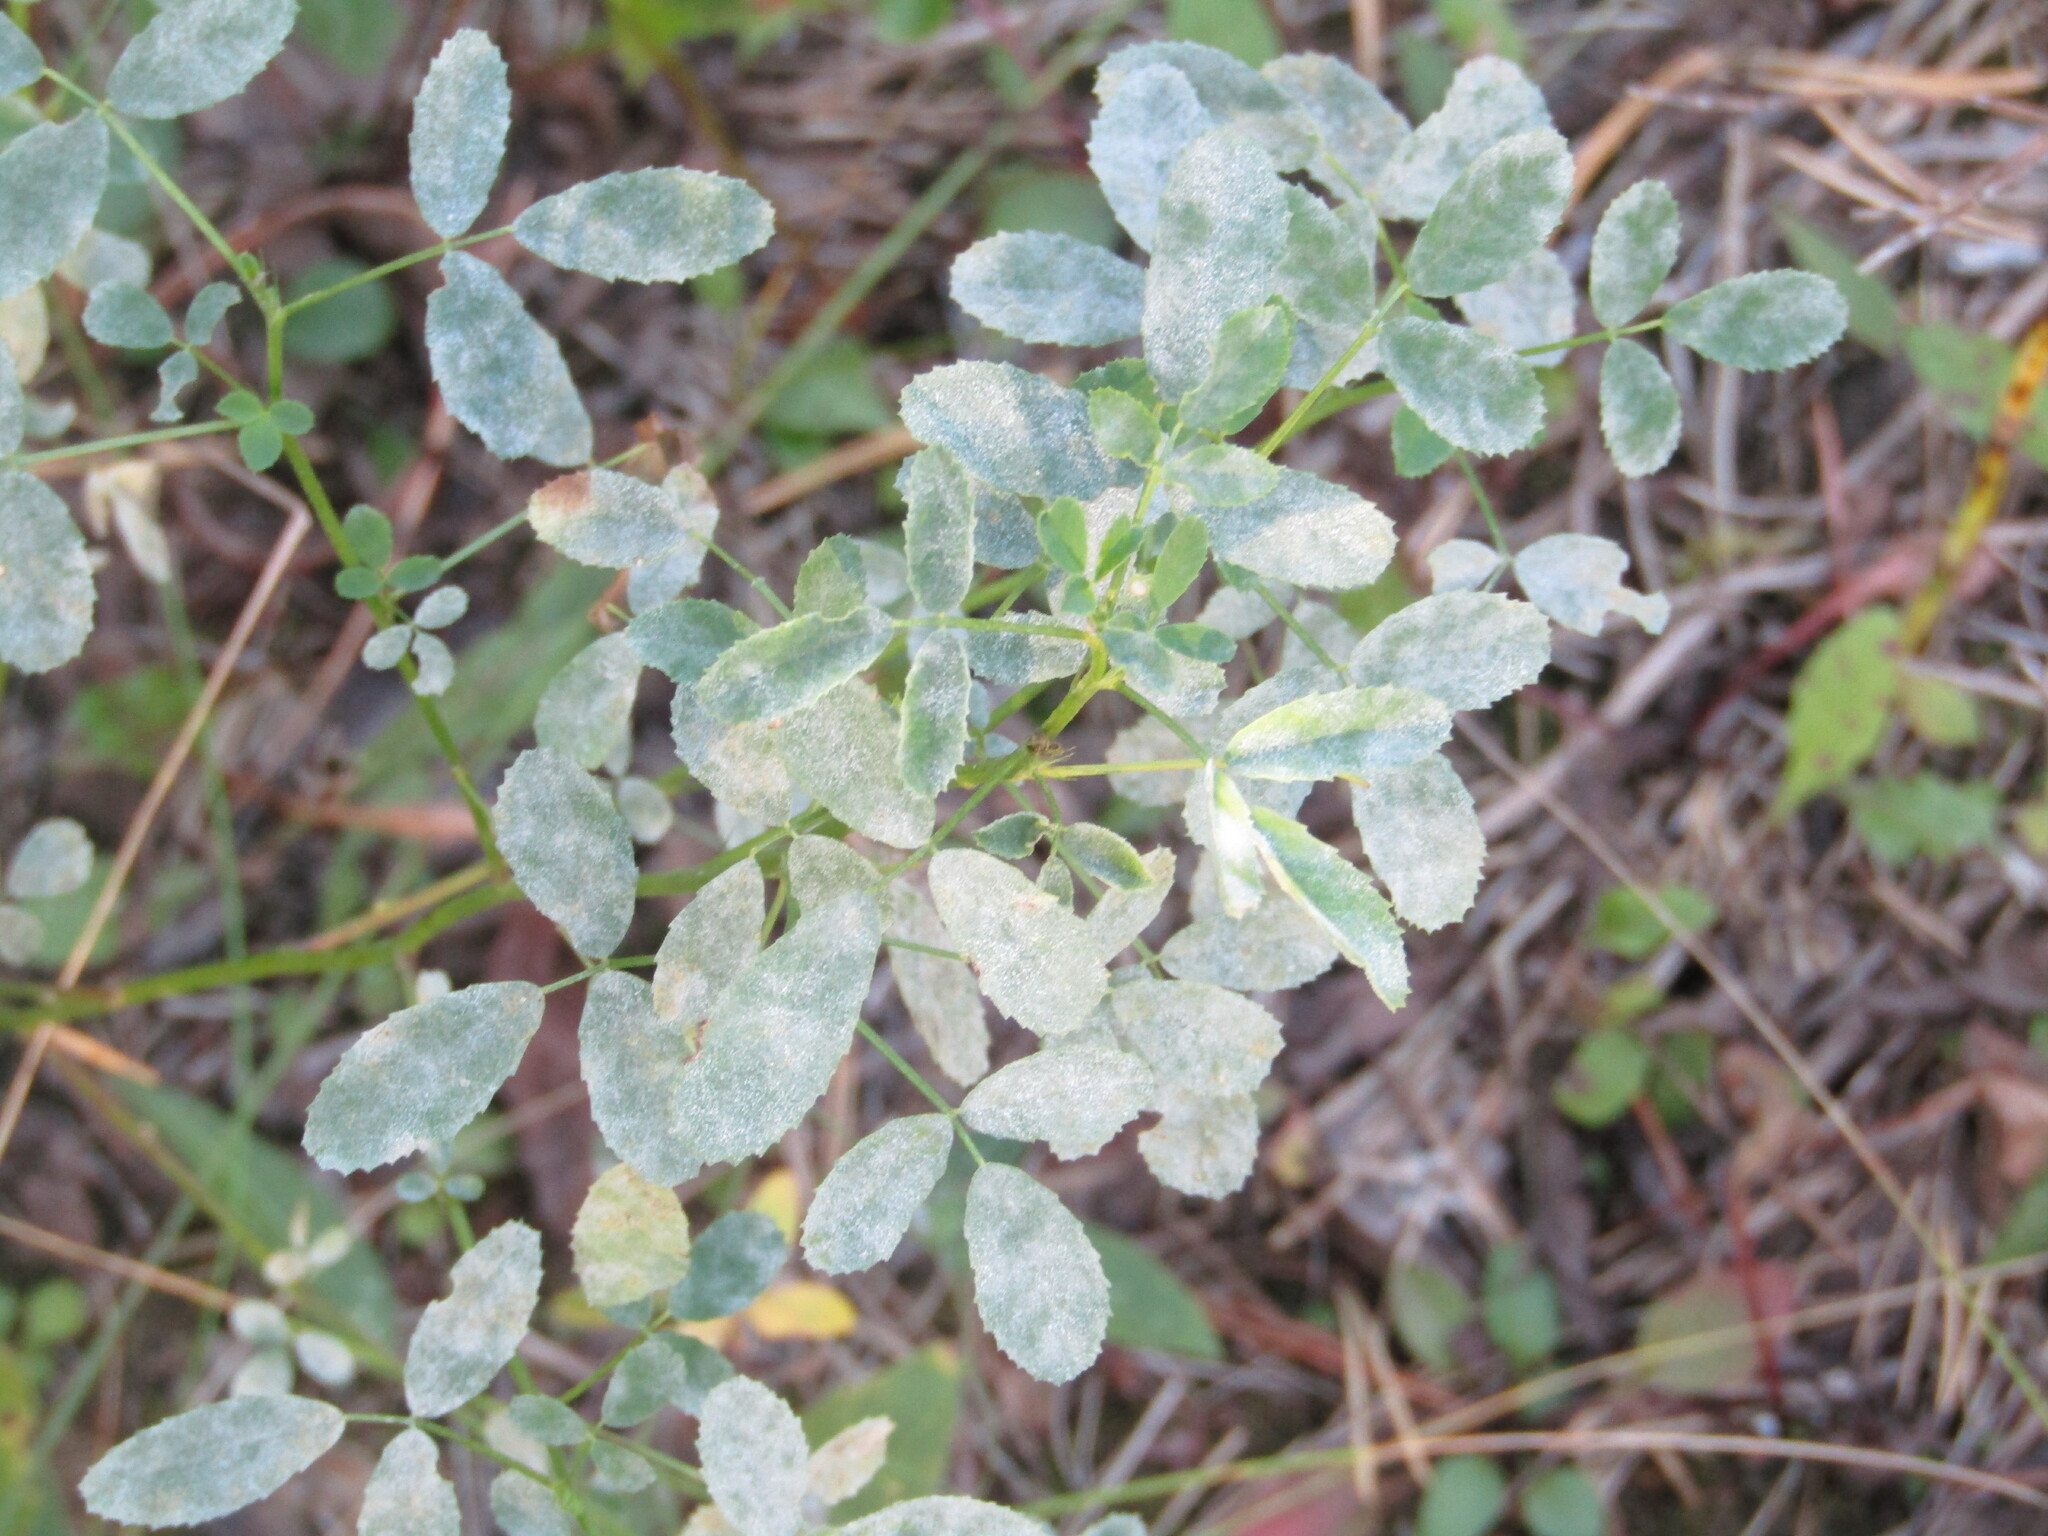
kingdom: Plantae
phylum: Tracheophyta
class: Magnoliopsida
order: Fabales
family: Fabaceae
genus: Melilotus
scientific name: Melilotus
